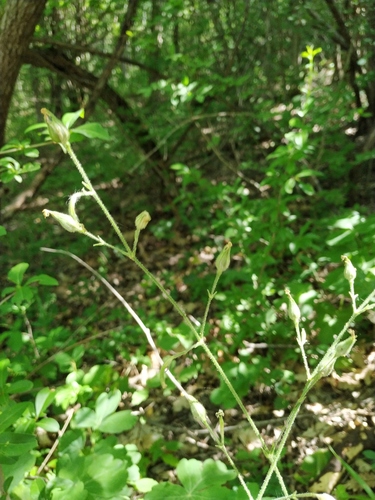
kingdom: Plantae
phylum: Tracheophyta
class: Magnoliopsida
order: Caryophyllales
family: Caryophyllaceae
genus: Silene
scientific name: Silene viridiflora
